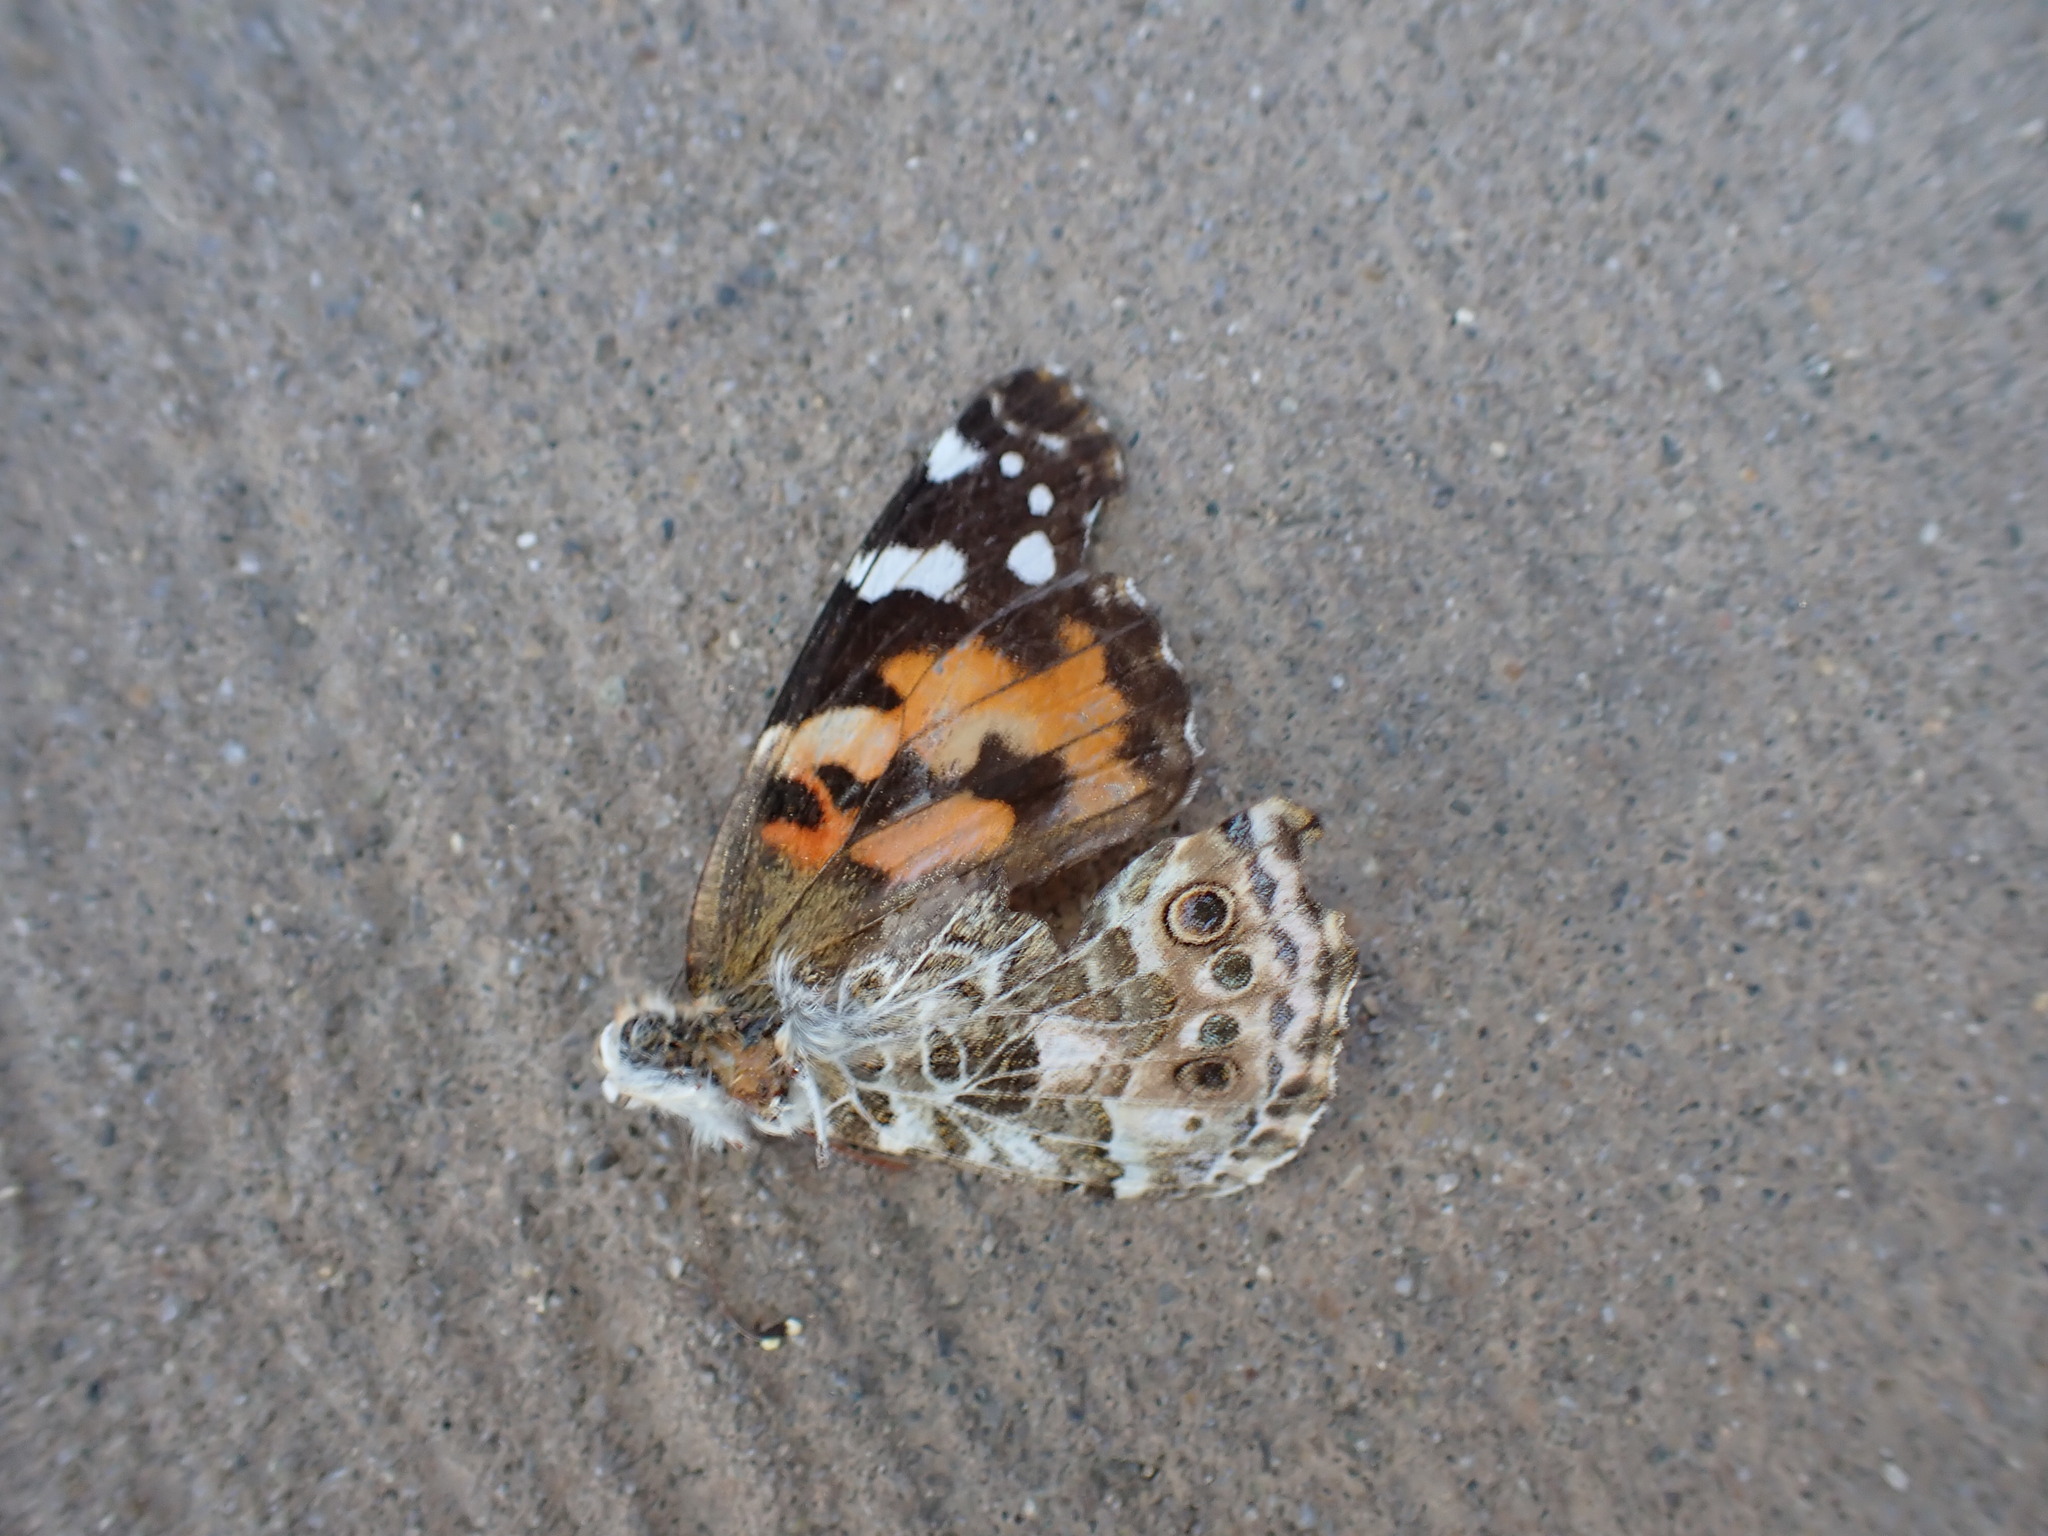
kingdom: Animalia
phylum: Arthropoda
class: Insecta
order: Lepidoptera
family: Nymphalidae
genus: Vanessa
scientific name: Vanessa cardui
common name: Painted lady
